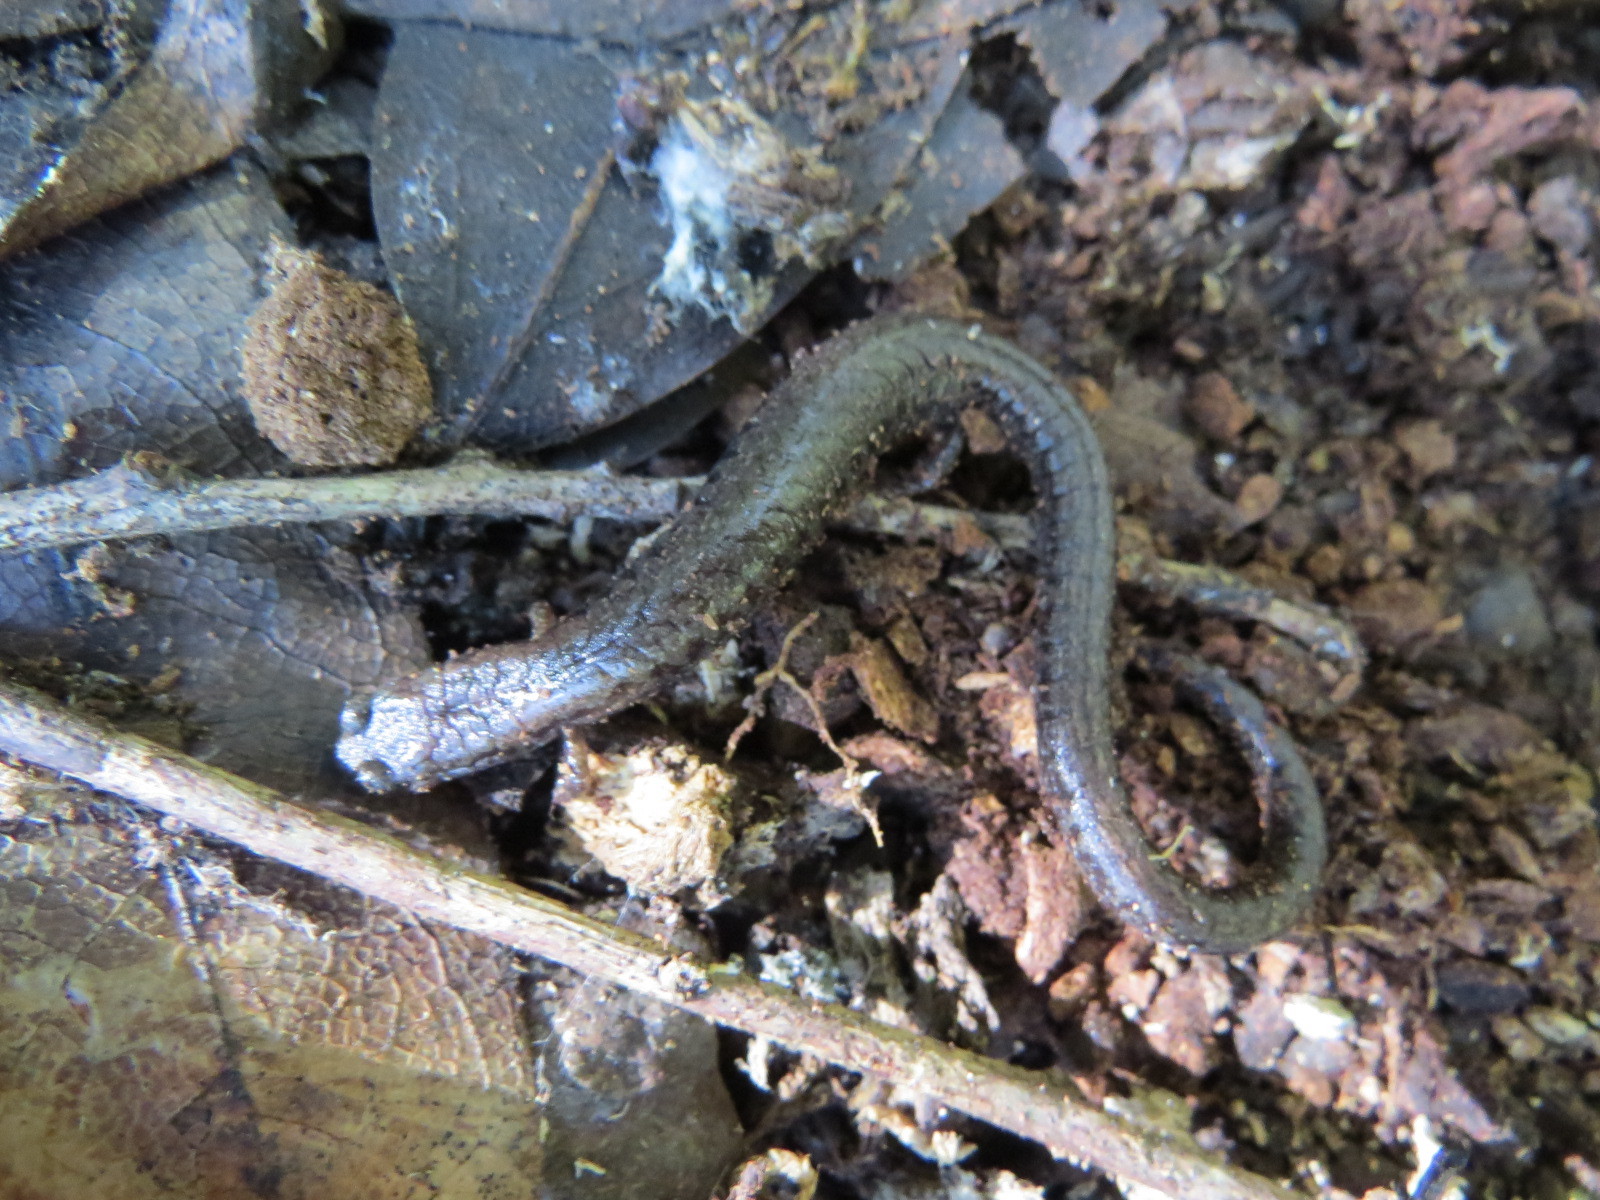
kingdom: Animalia
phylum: Chordata
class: Amphibia
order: Caudata
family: Plethodontidae
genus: Batrachoseps
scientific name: Batrachoseps attenuatus
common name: California slender salamander
